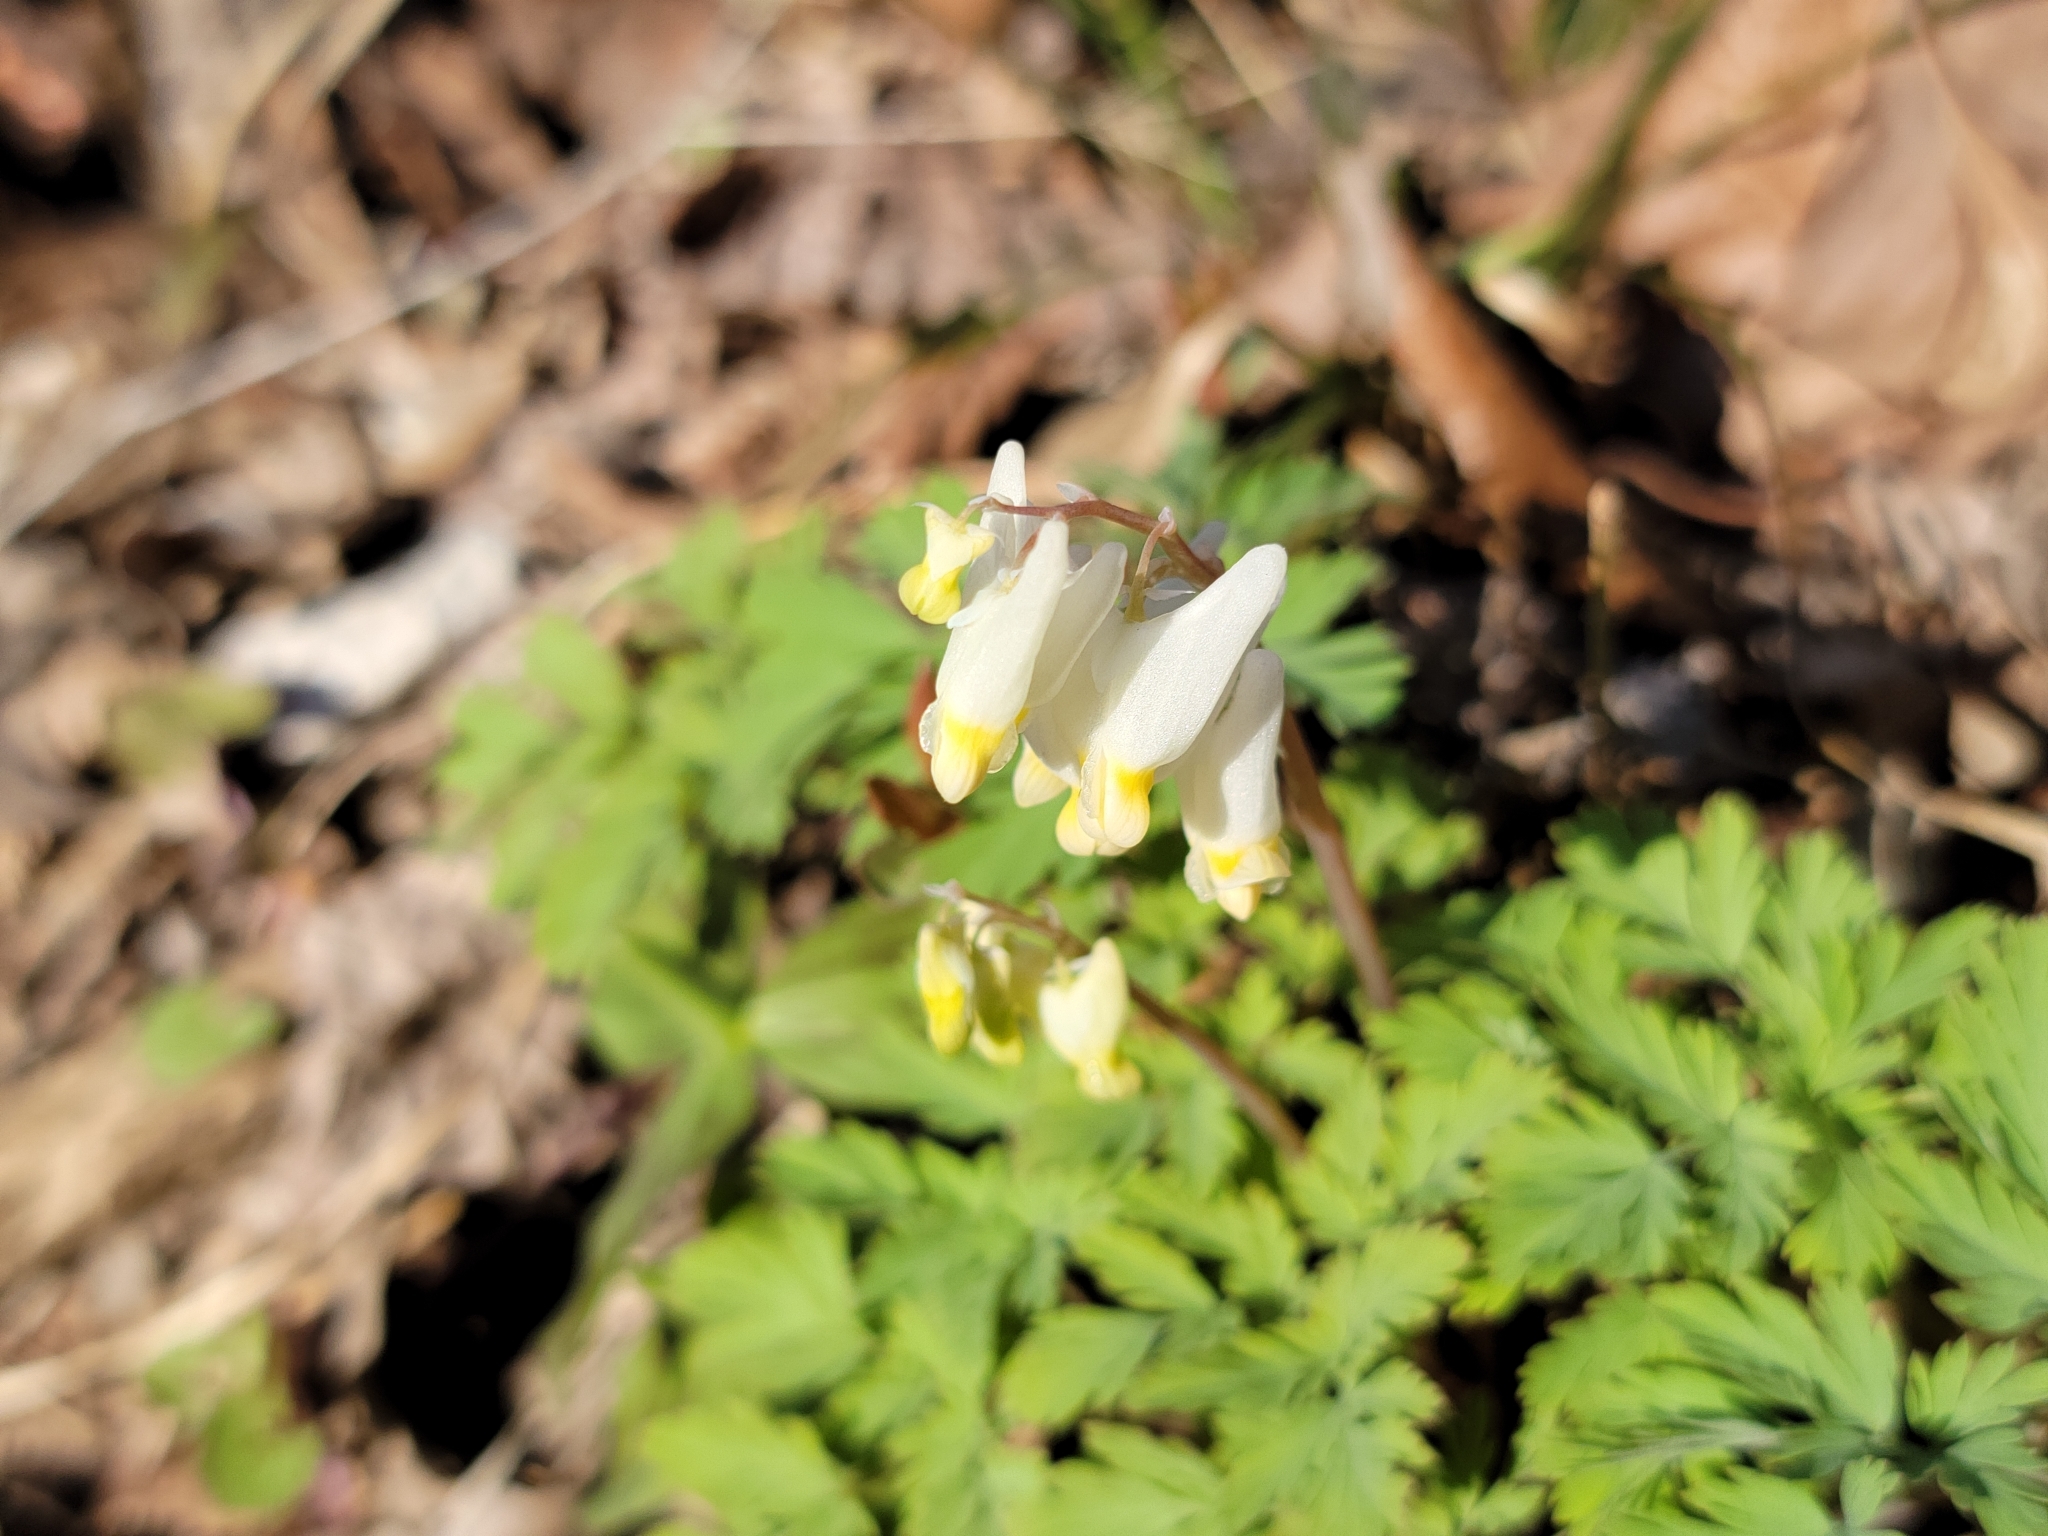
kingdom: Plantae
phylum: Tracheophyta
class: Magnoliopsida
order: Ranunculales
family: Papaveraceae
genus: Dicentra
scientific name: Dicentra cucullaria
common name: Dutchman's breeches
